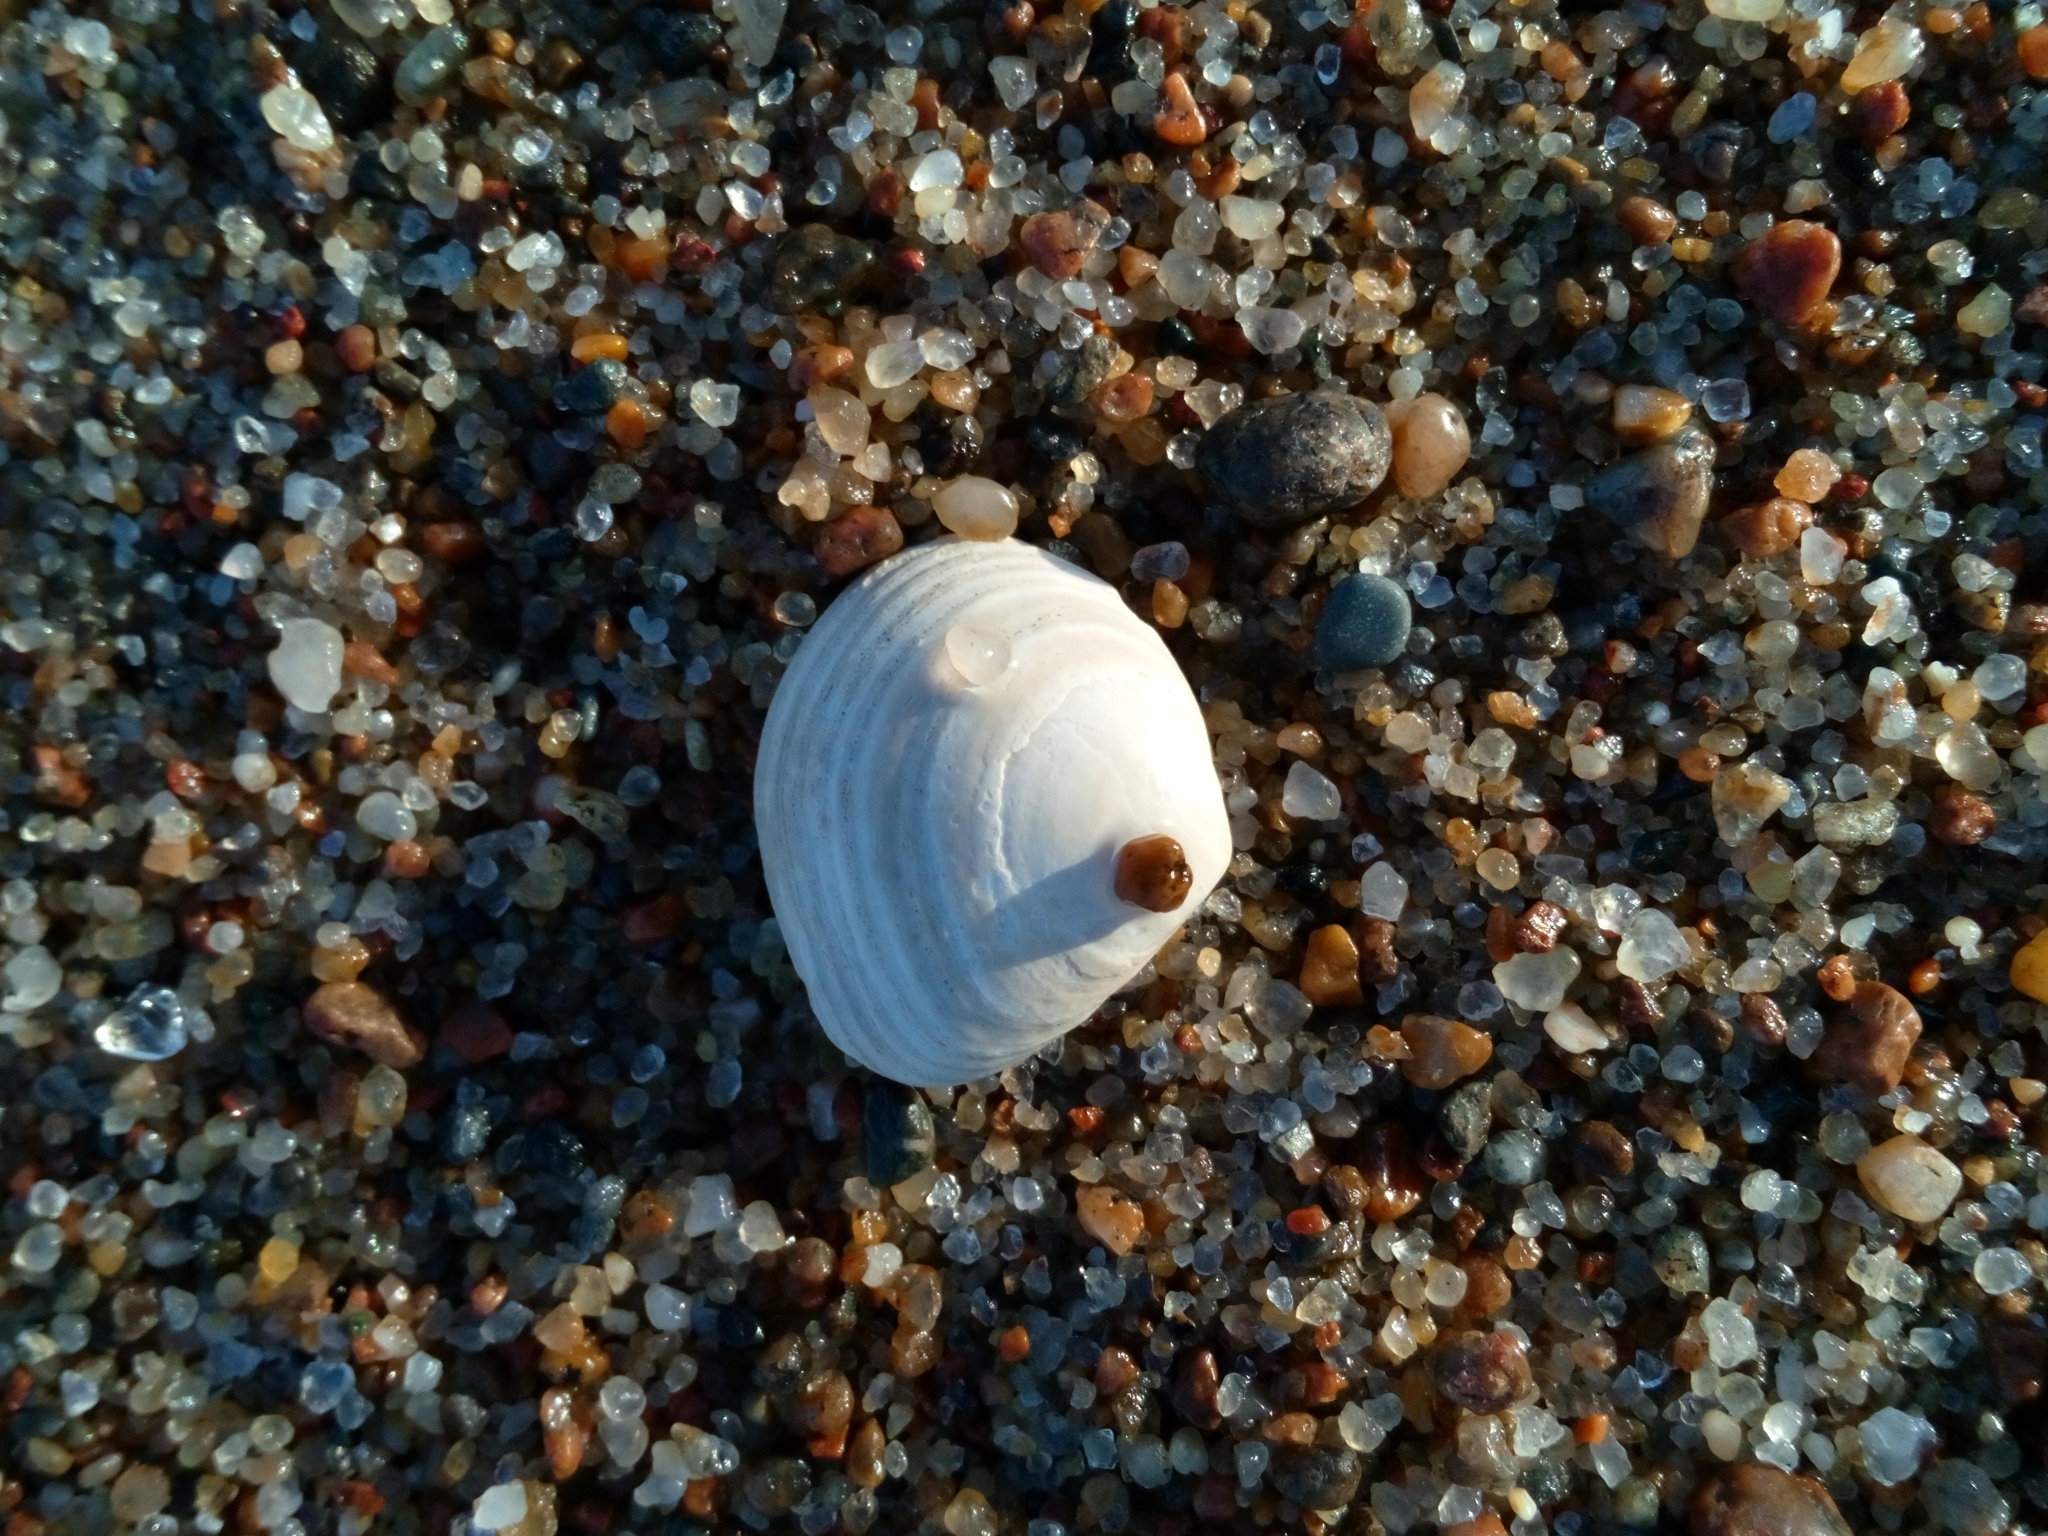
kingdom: Animalia
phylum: Mollusca
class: Bivalvia
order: Cardiida
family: Tellinidae
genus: Macoma
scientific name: Macoma balthica
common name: Baltic tellin
